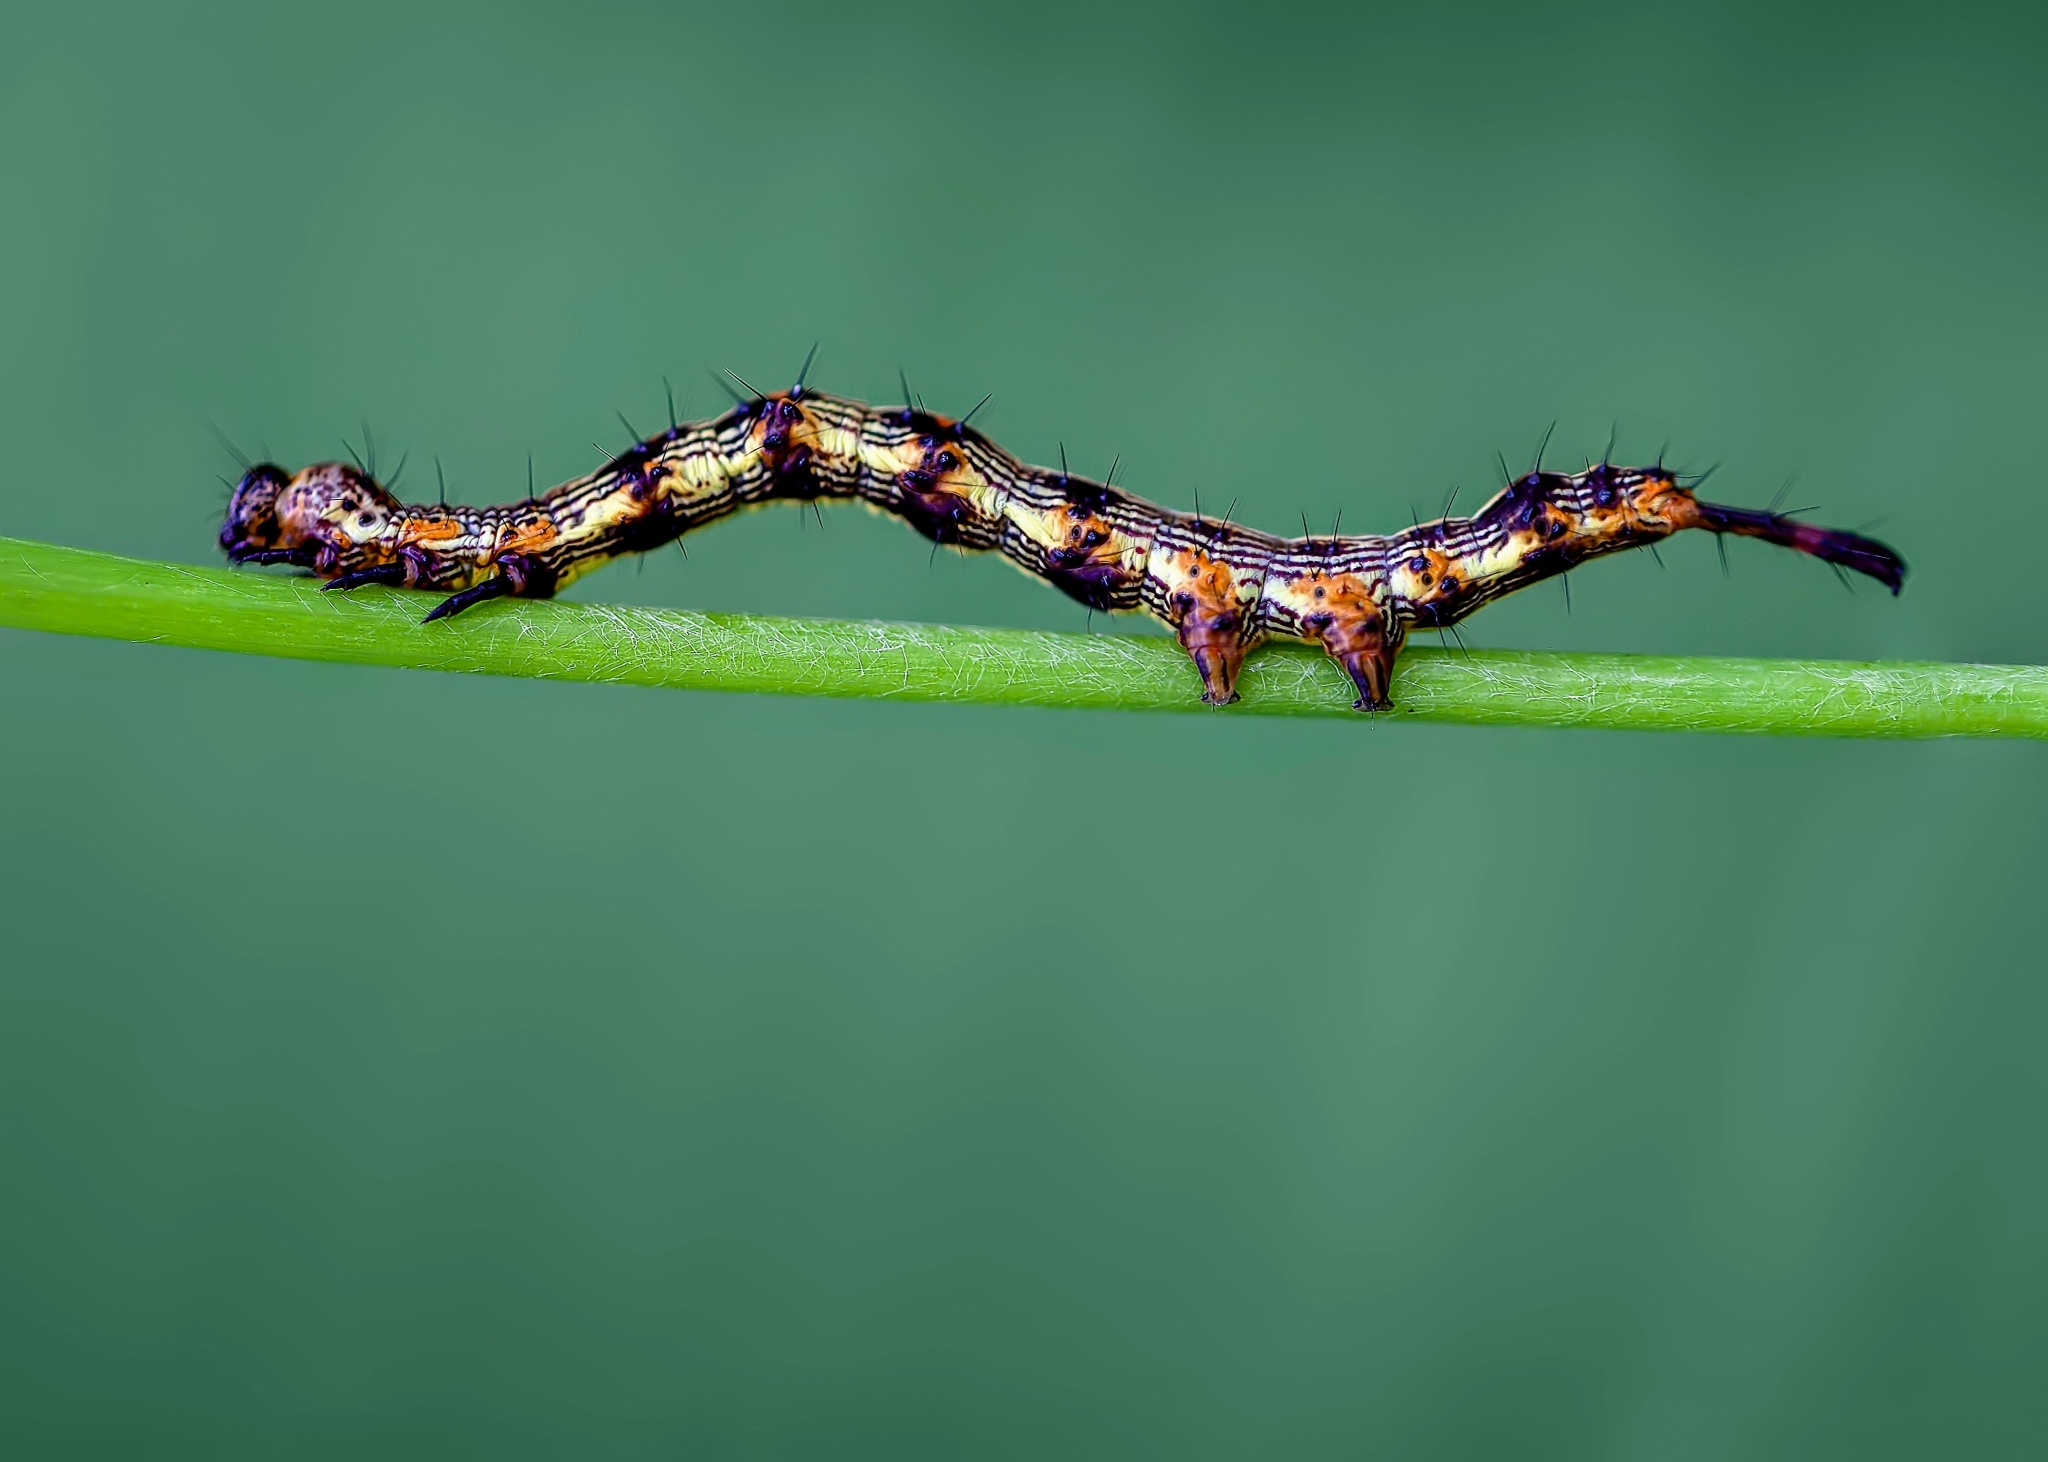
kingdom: Animalia
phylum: Arthropoda
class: Insecta
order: Lepidoptera
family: Erebidae
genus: Selenisa
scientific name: Selenisa sueroides
